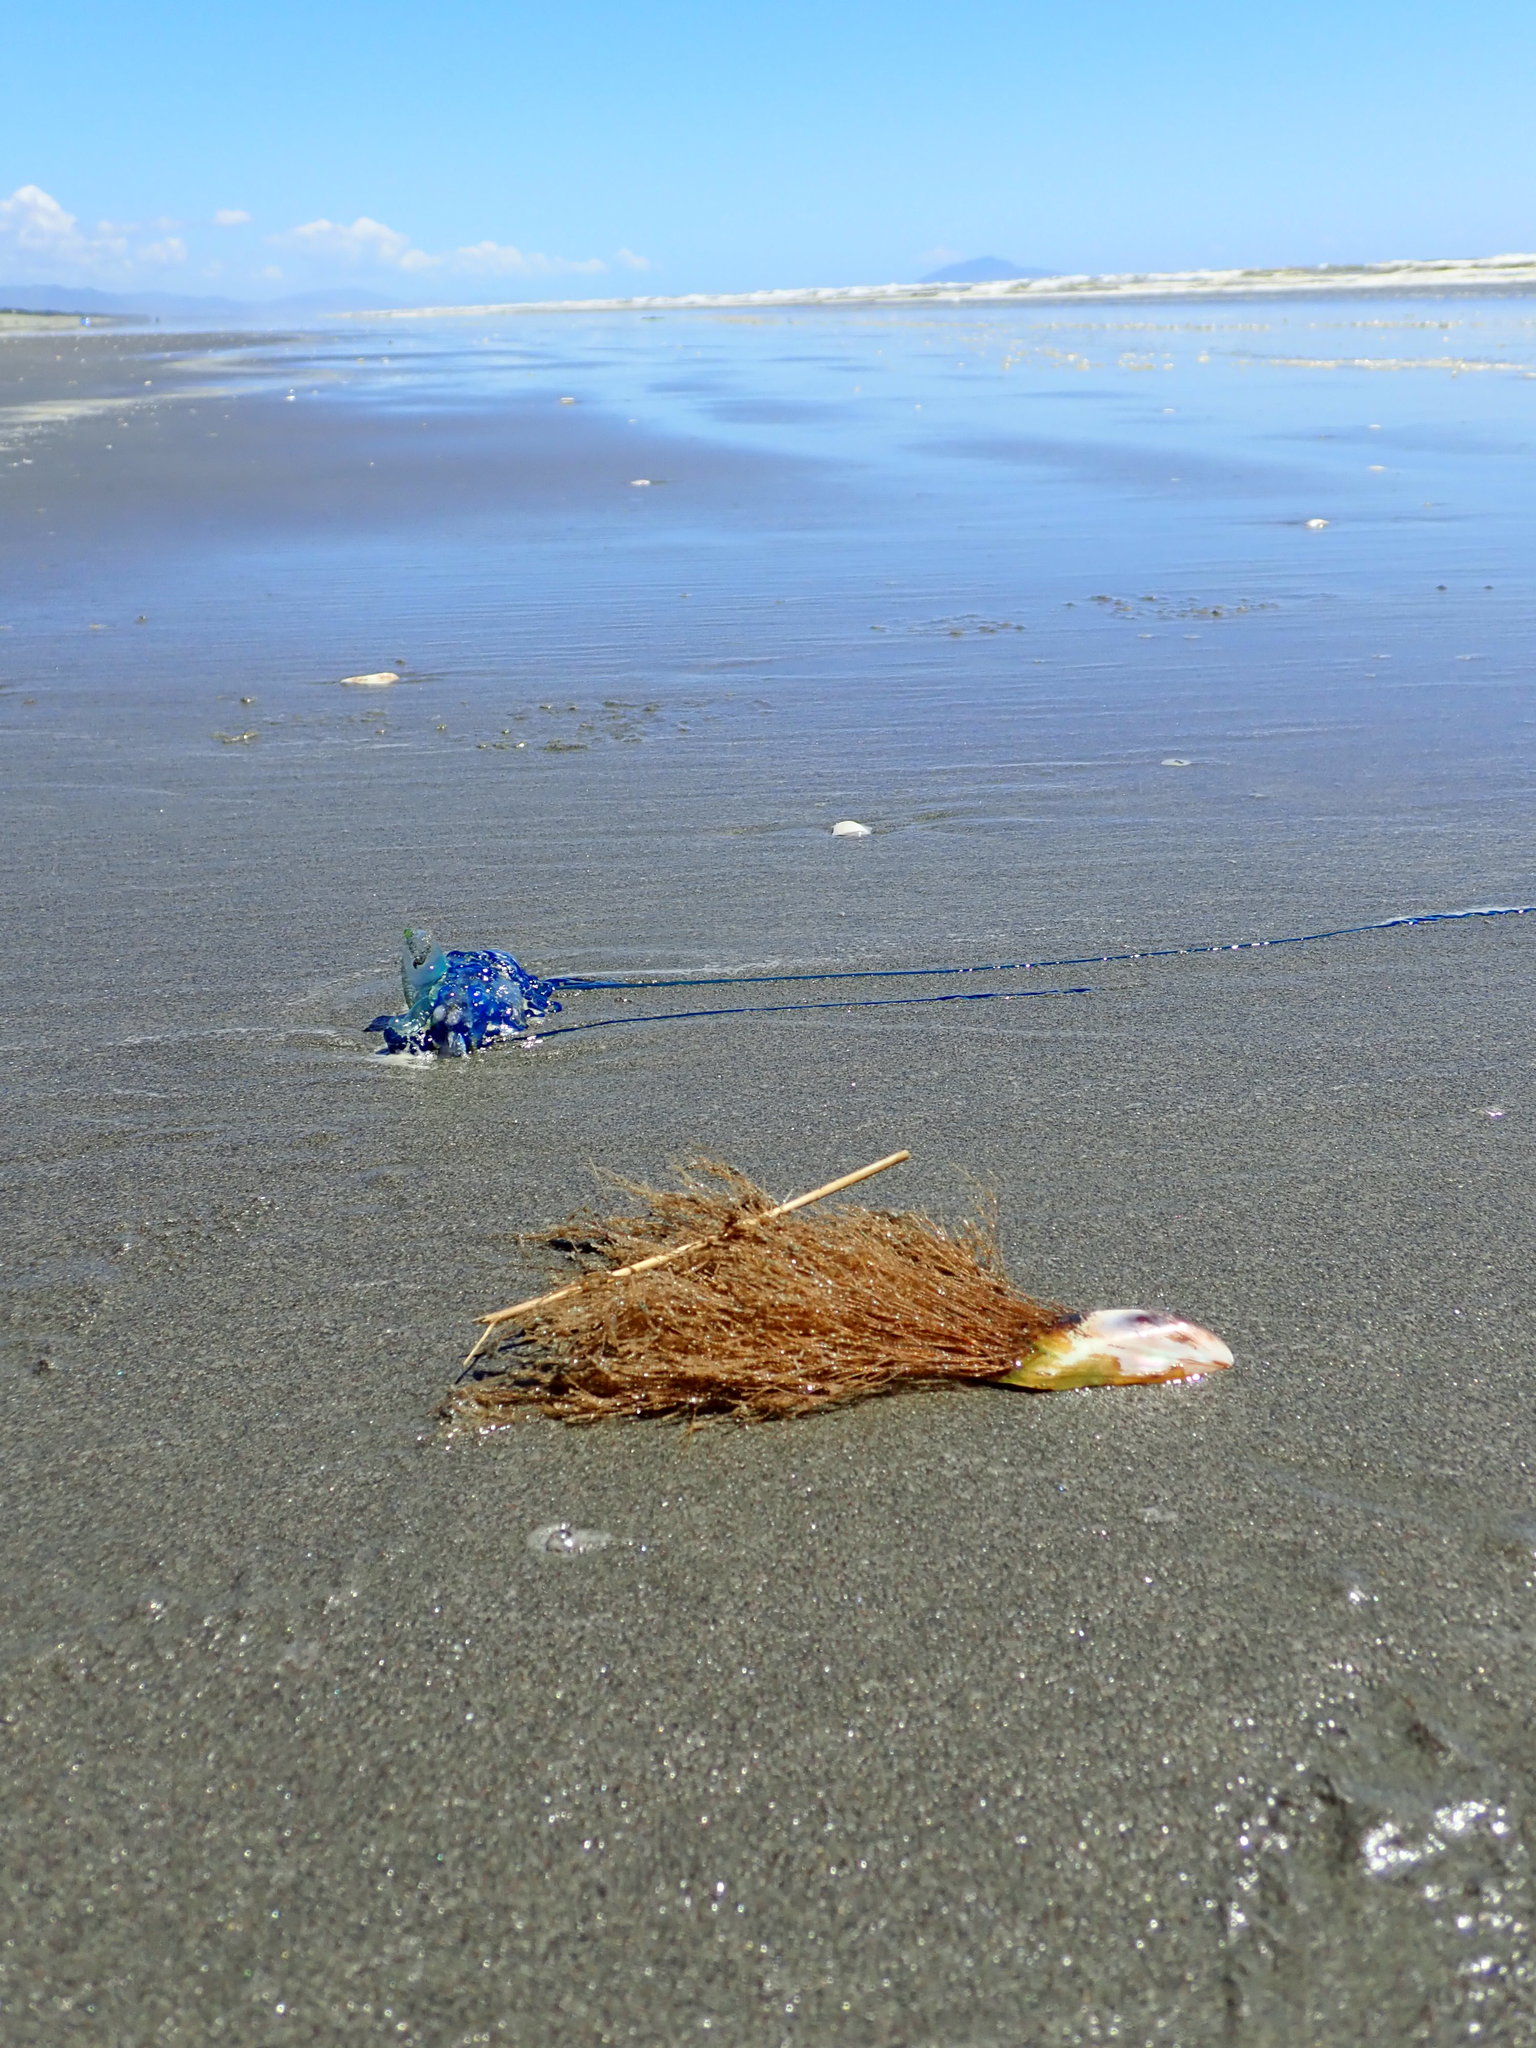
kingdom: Animalia
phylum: Mollusca
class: Bivalvia
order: Mytilida
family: Mytilidae
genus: Perna
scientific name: Perna canaliculus
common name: New zealand greenshelltm
